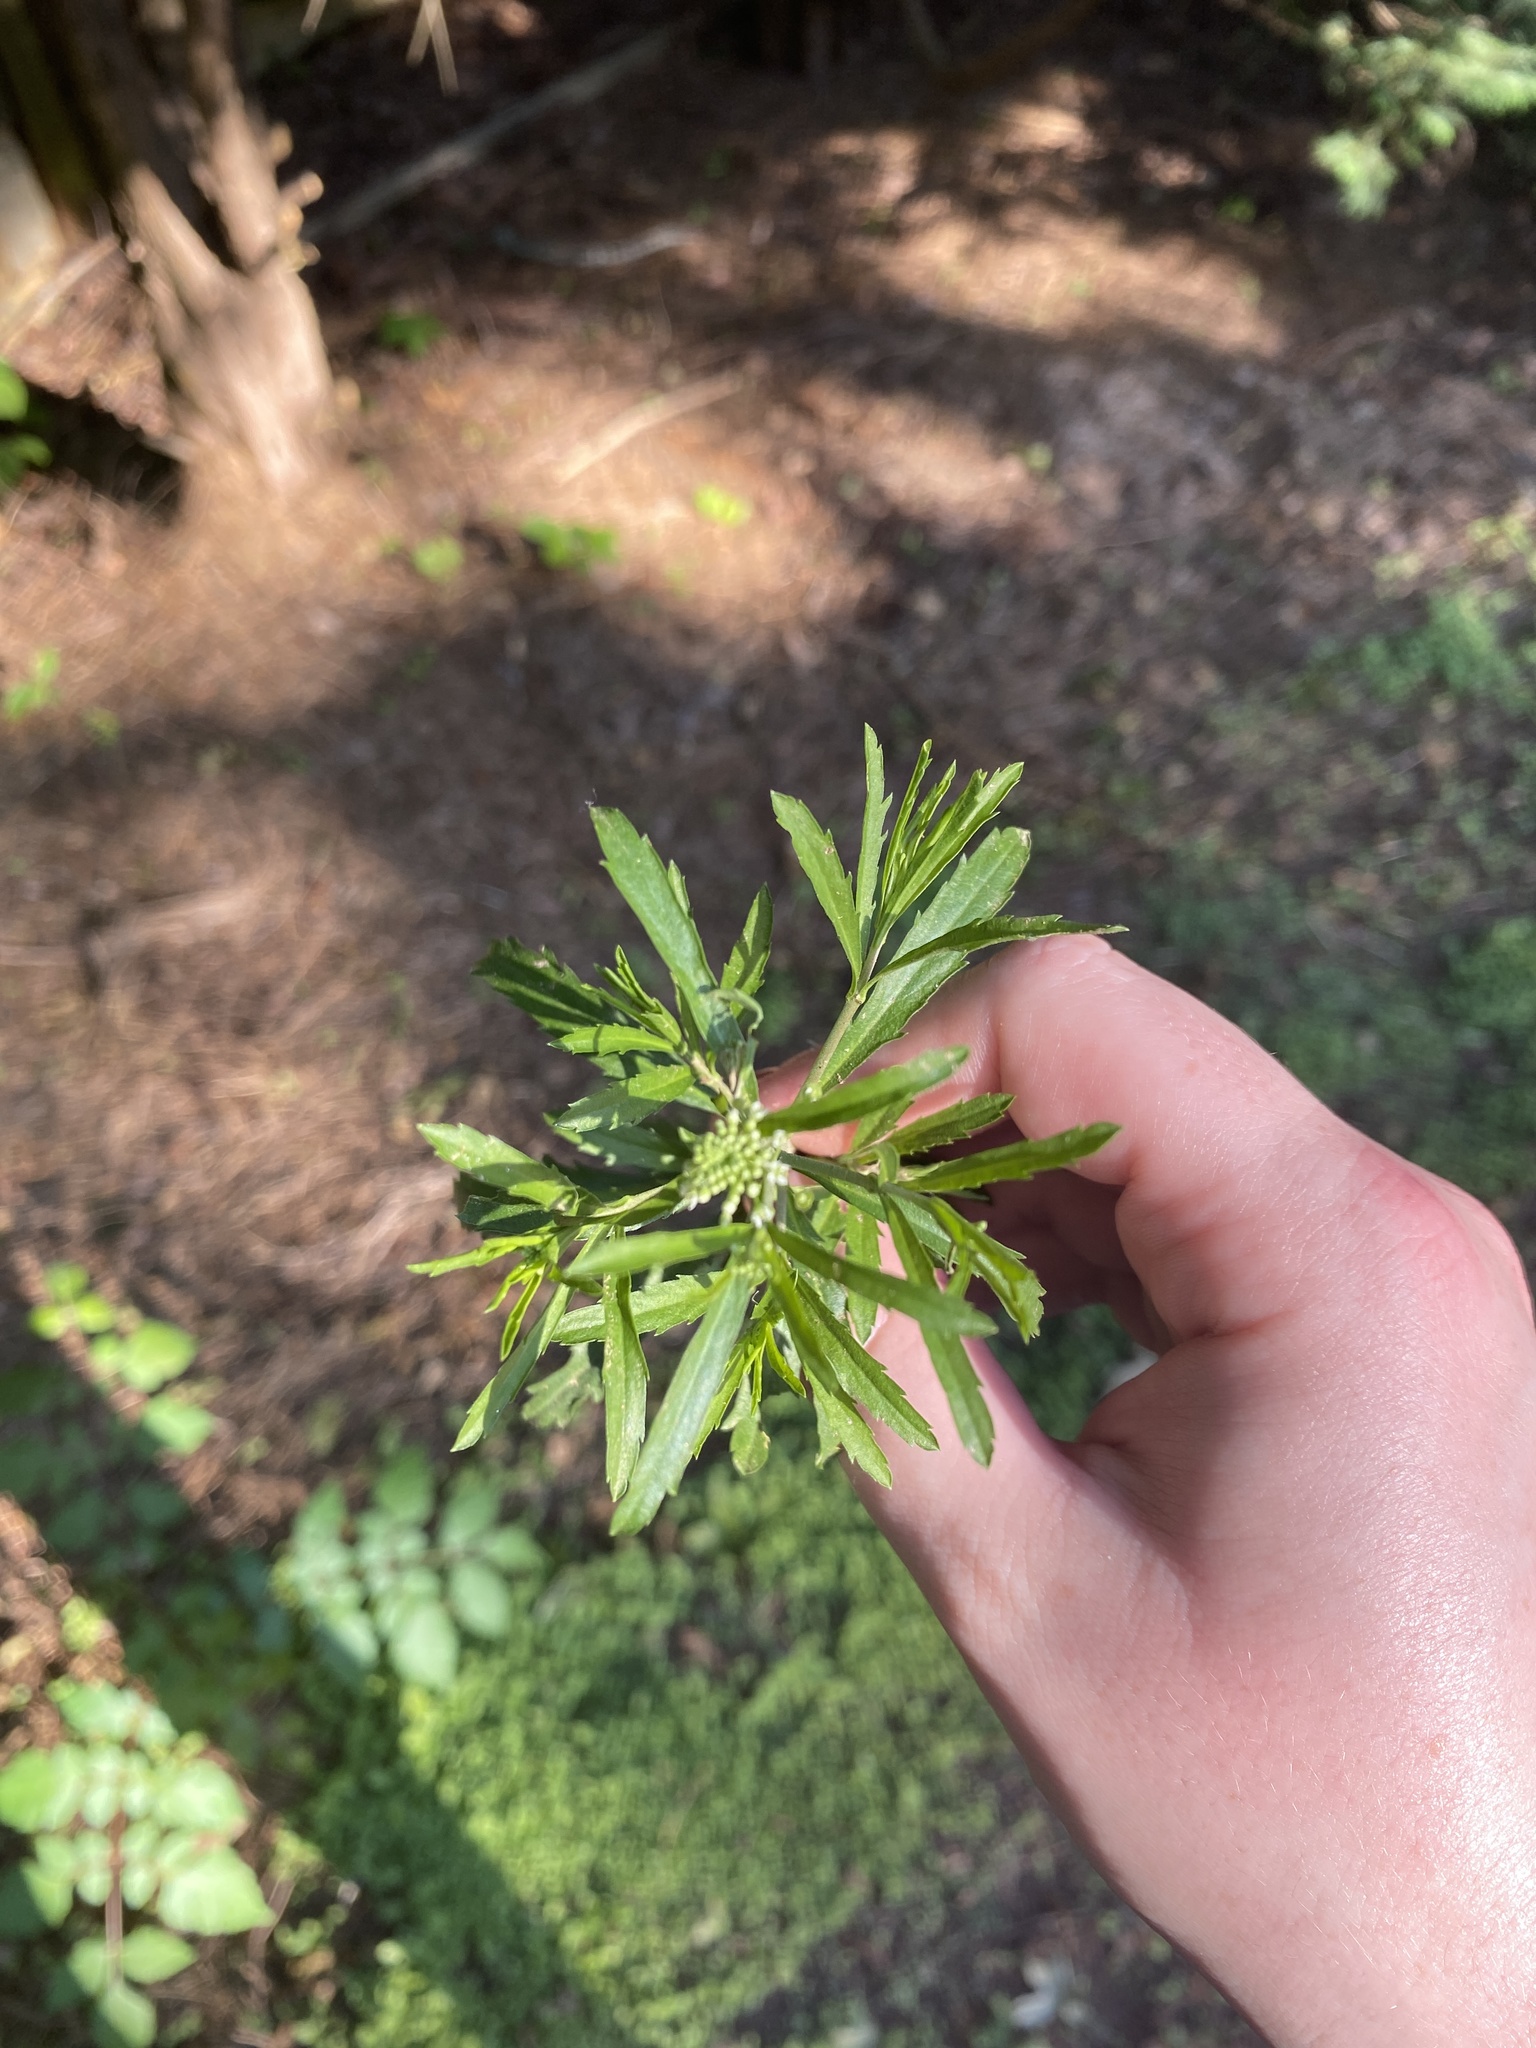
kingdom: Plantae
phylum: Tracheophyta
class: Magnoliopsida
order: Brassicales
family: Brassicaceae
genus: Lepidium
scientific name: Lepidium virginicum
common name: Least pepperwort
